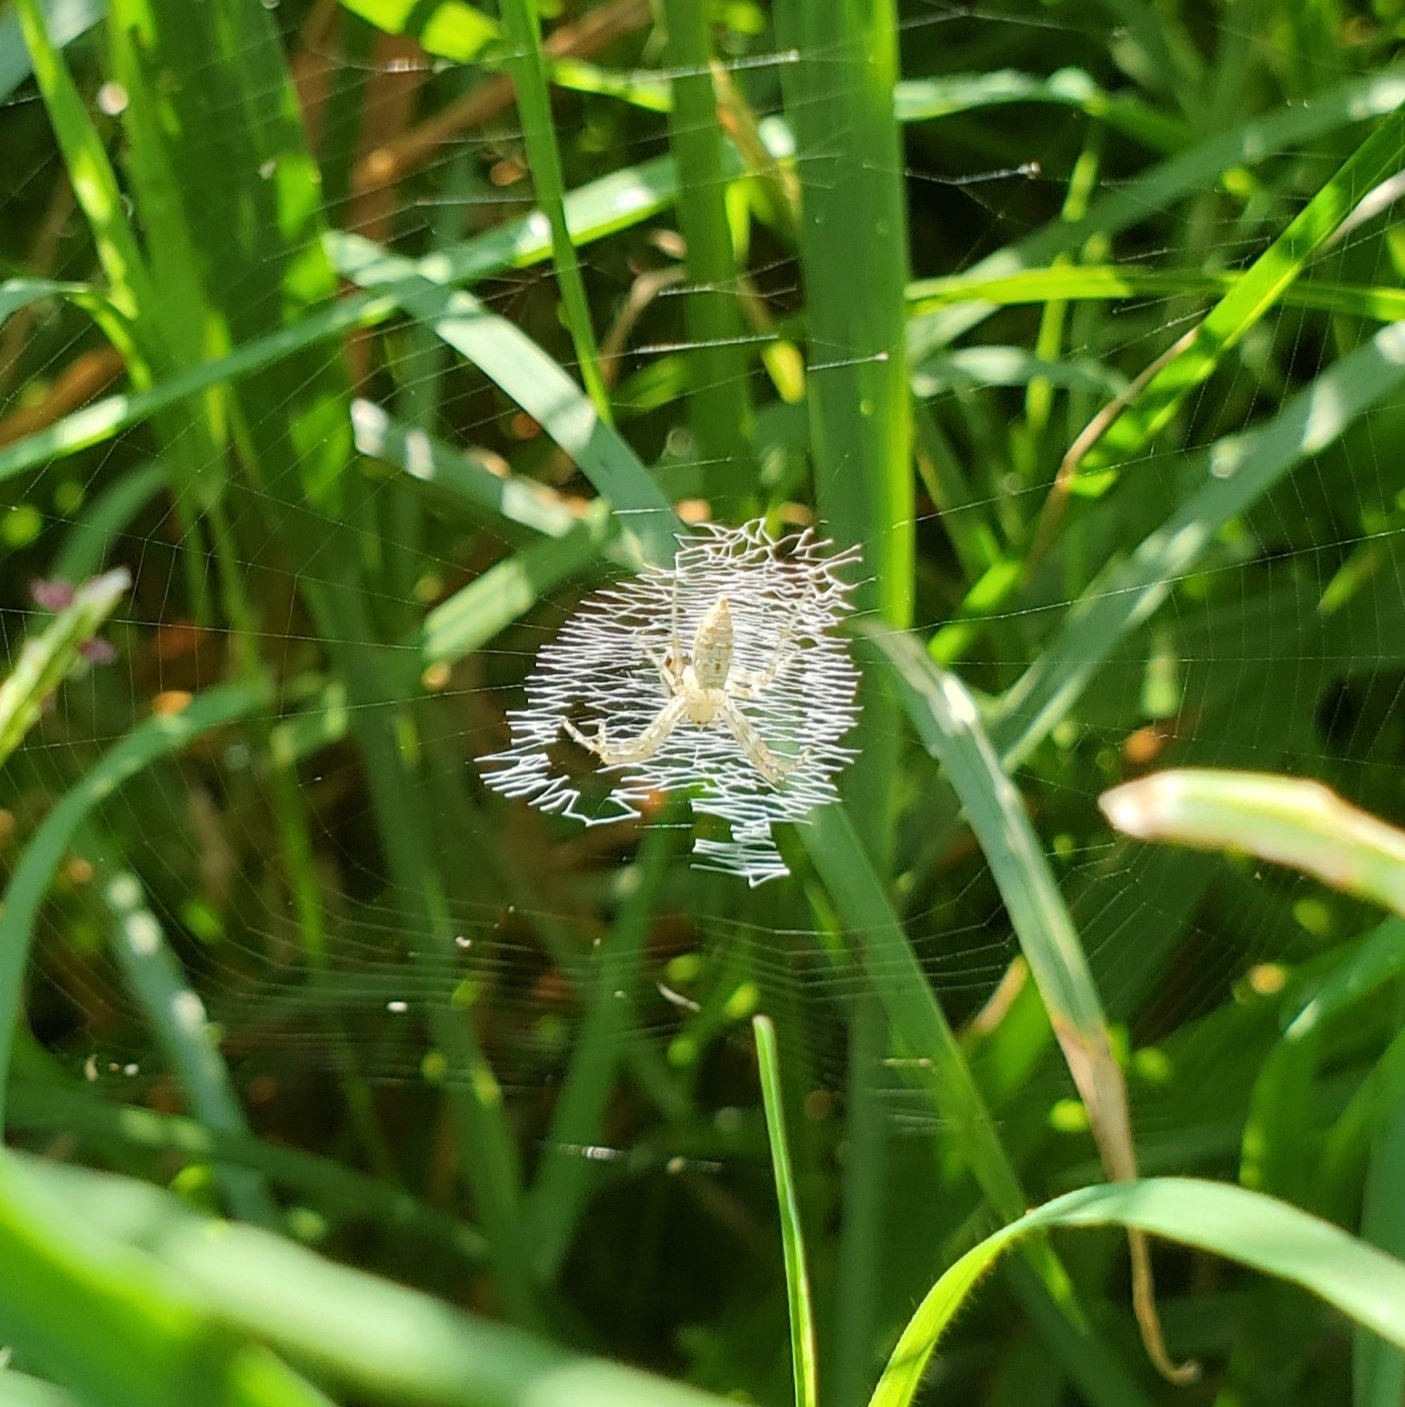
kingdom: Animalia
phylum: Arthropoda
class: Arachnida
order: Araneae
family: Araneidae
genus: Argiope
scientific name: Argiope aurantia
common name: Orb weavers
